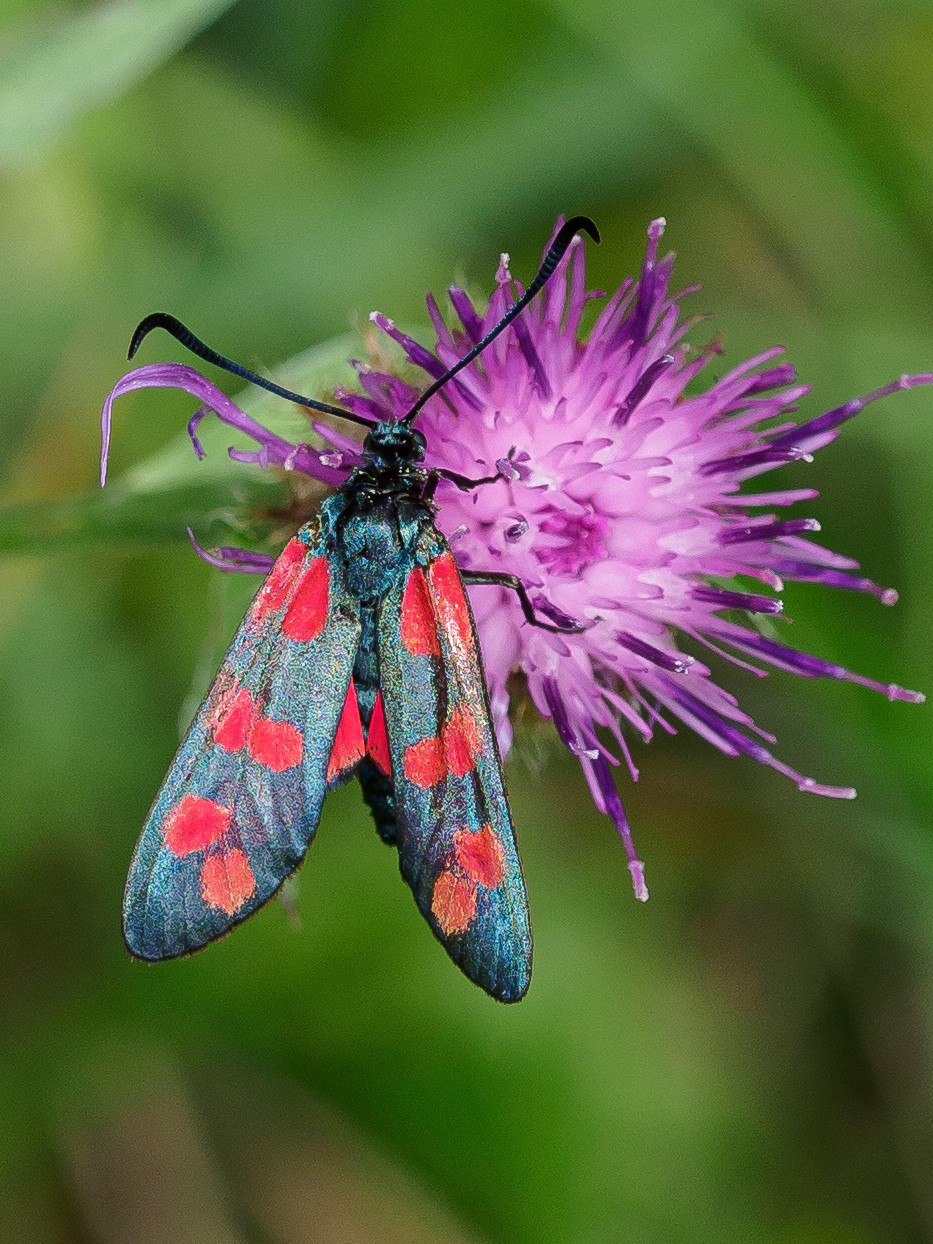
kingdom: Animalia
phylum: Arthropoda
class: Insecta
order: Lepidoptera
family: Zygaenidae
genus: Zygaena
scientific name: Zygaena filipendulae
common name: Six-spot burnet
